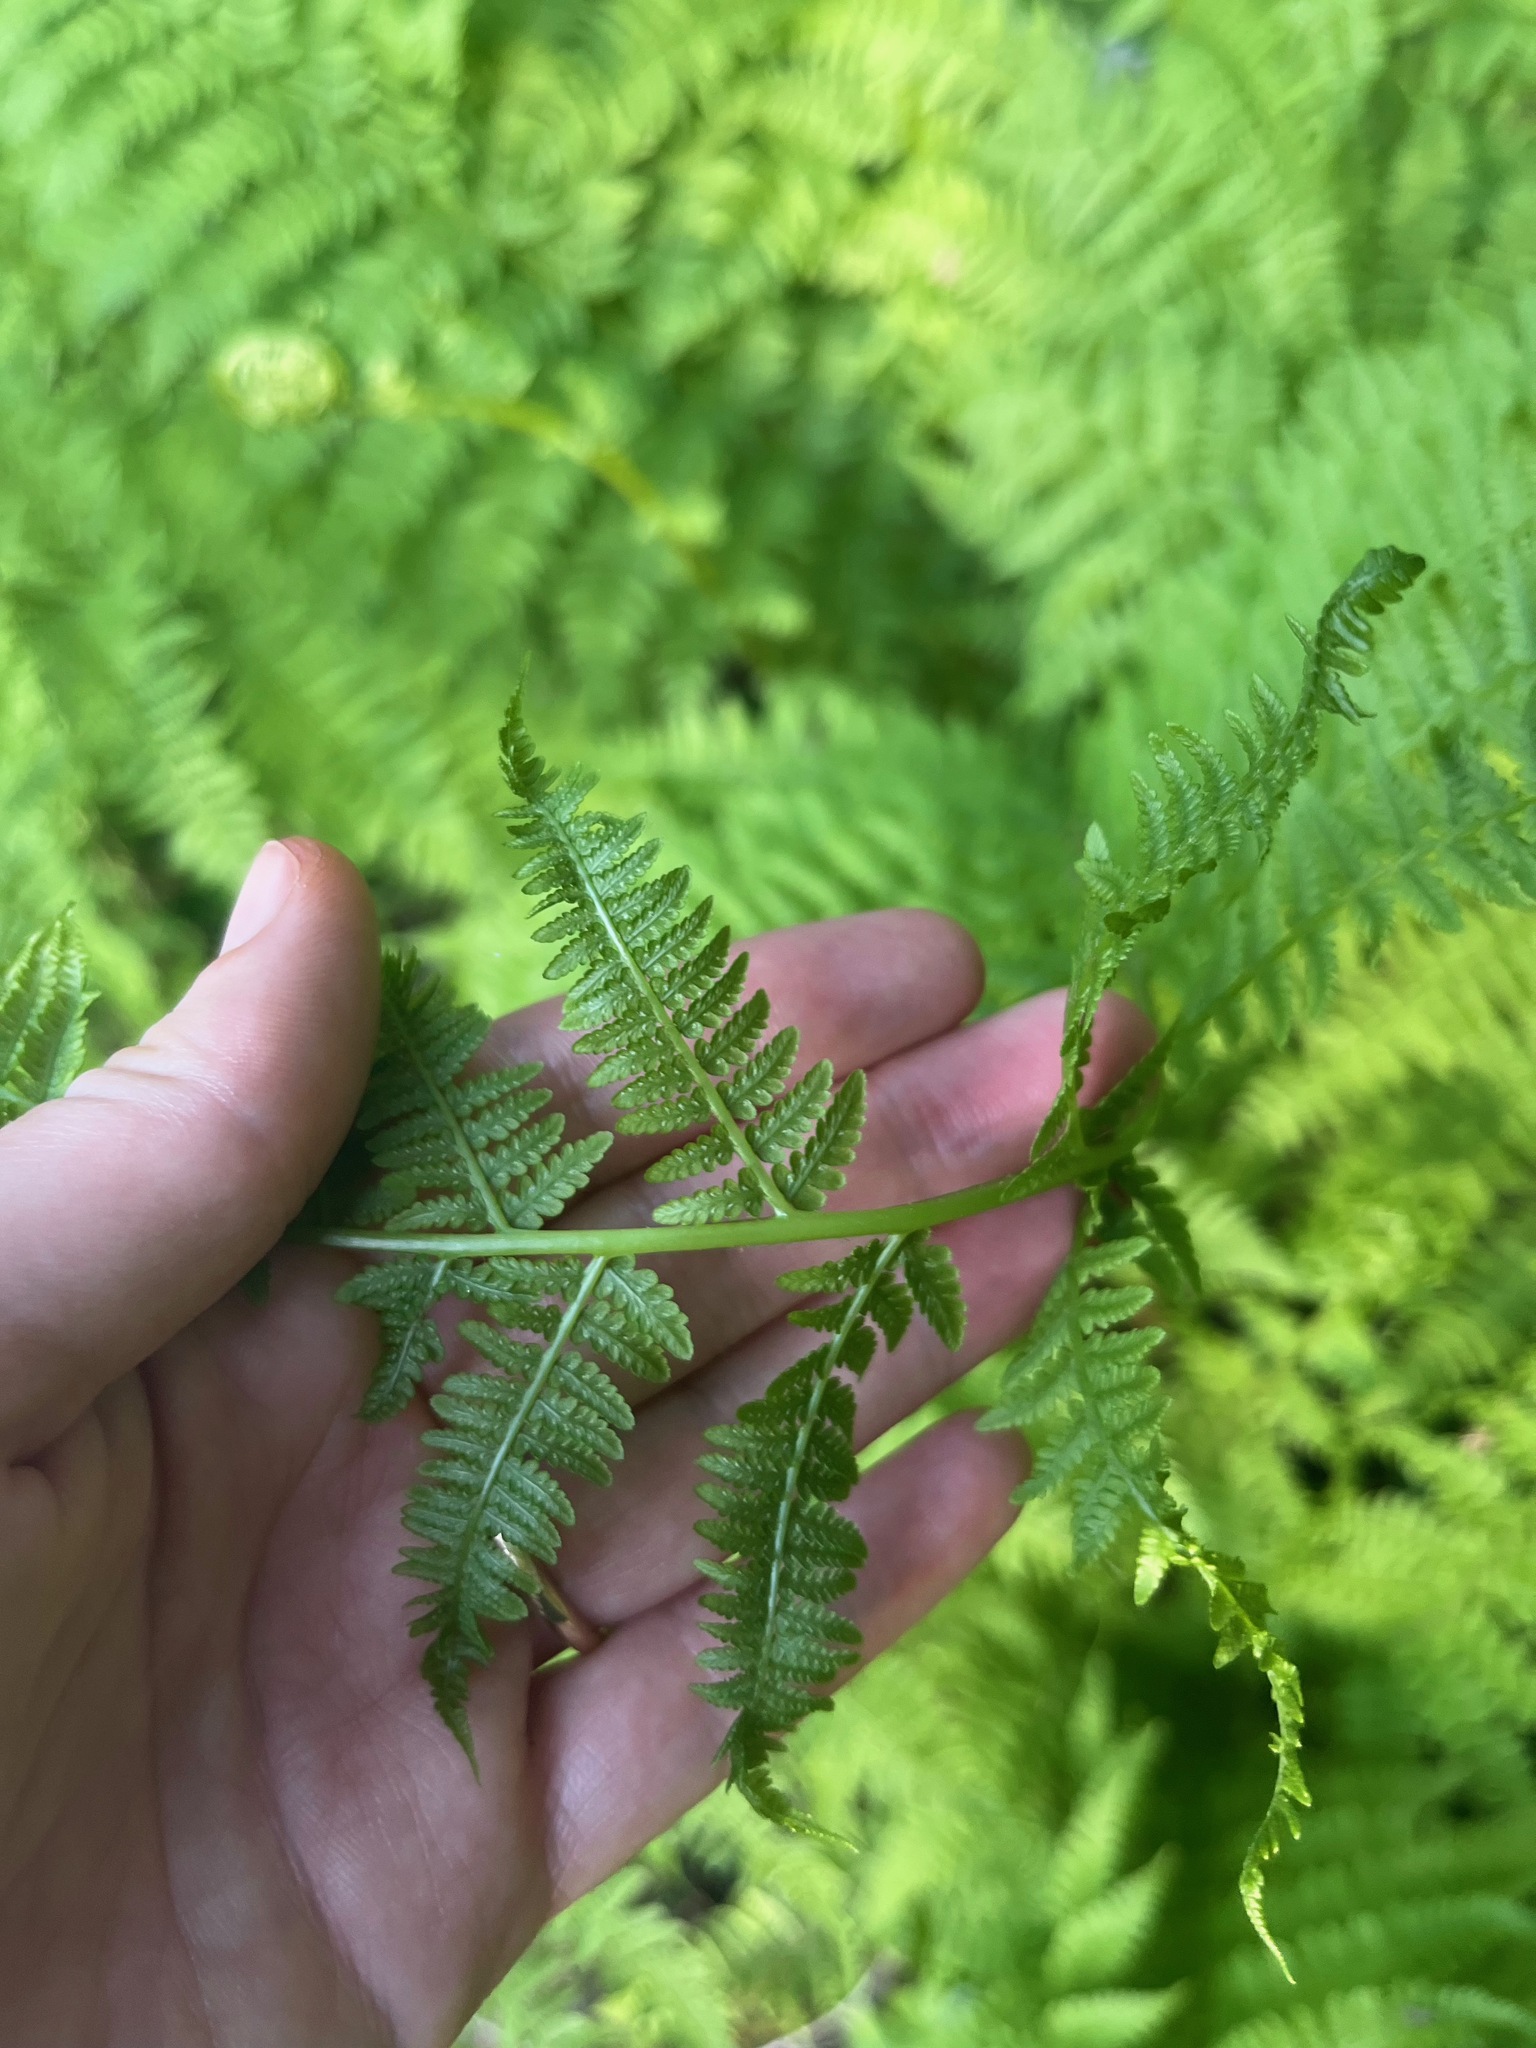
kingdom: Plantae
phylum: Tracheophyta
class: Polypodiopsida
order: Polypodiales
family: Athyriaceae
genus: Athyrium
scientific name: Athyrium filix-femina
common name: Lady fern
